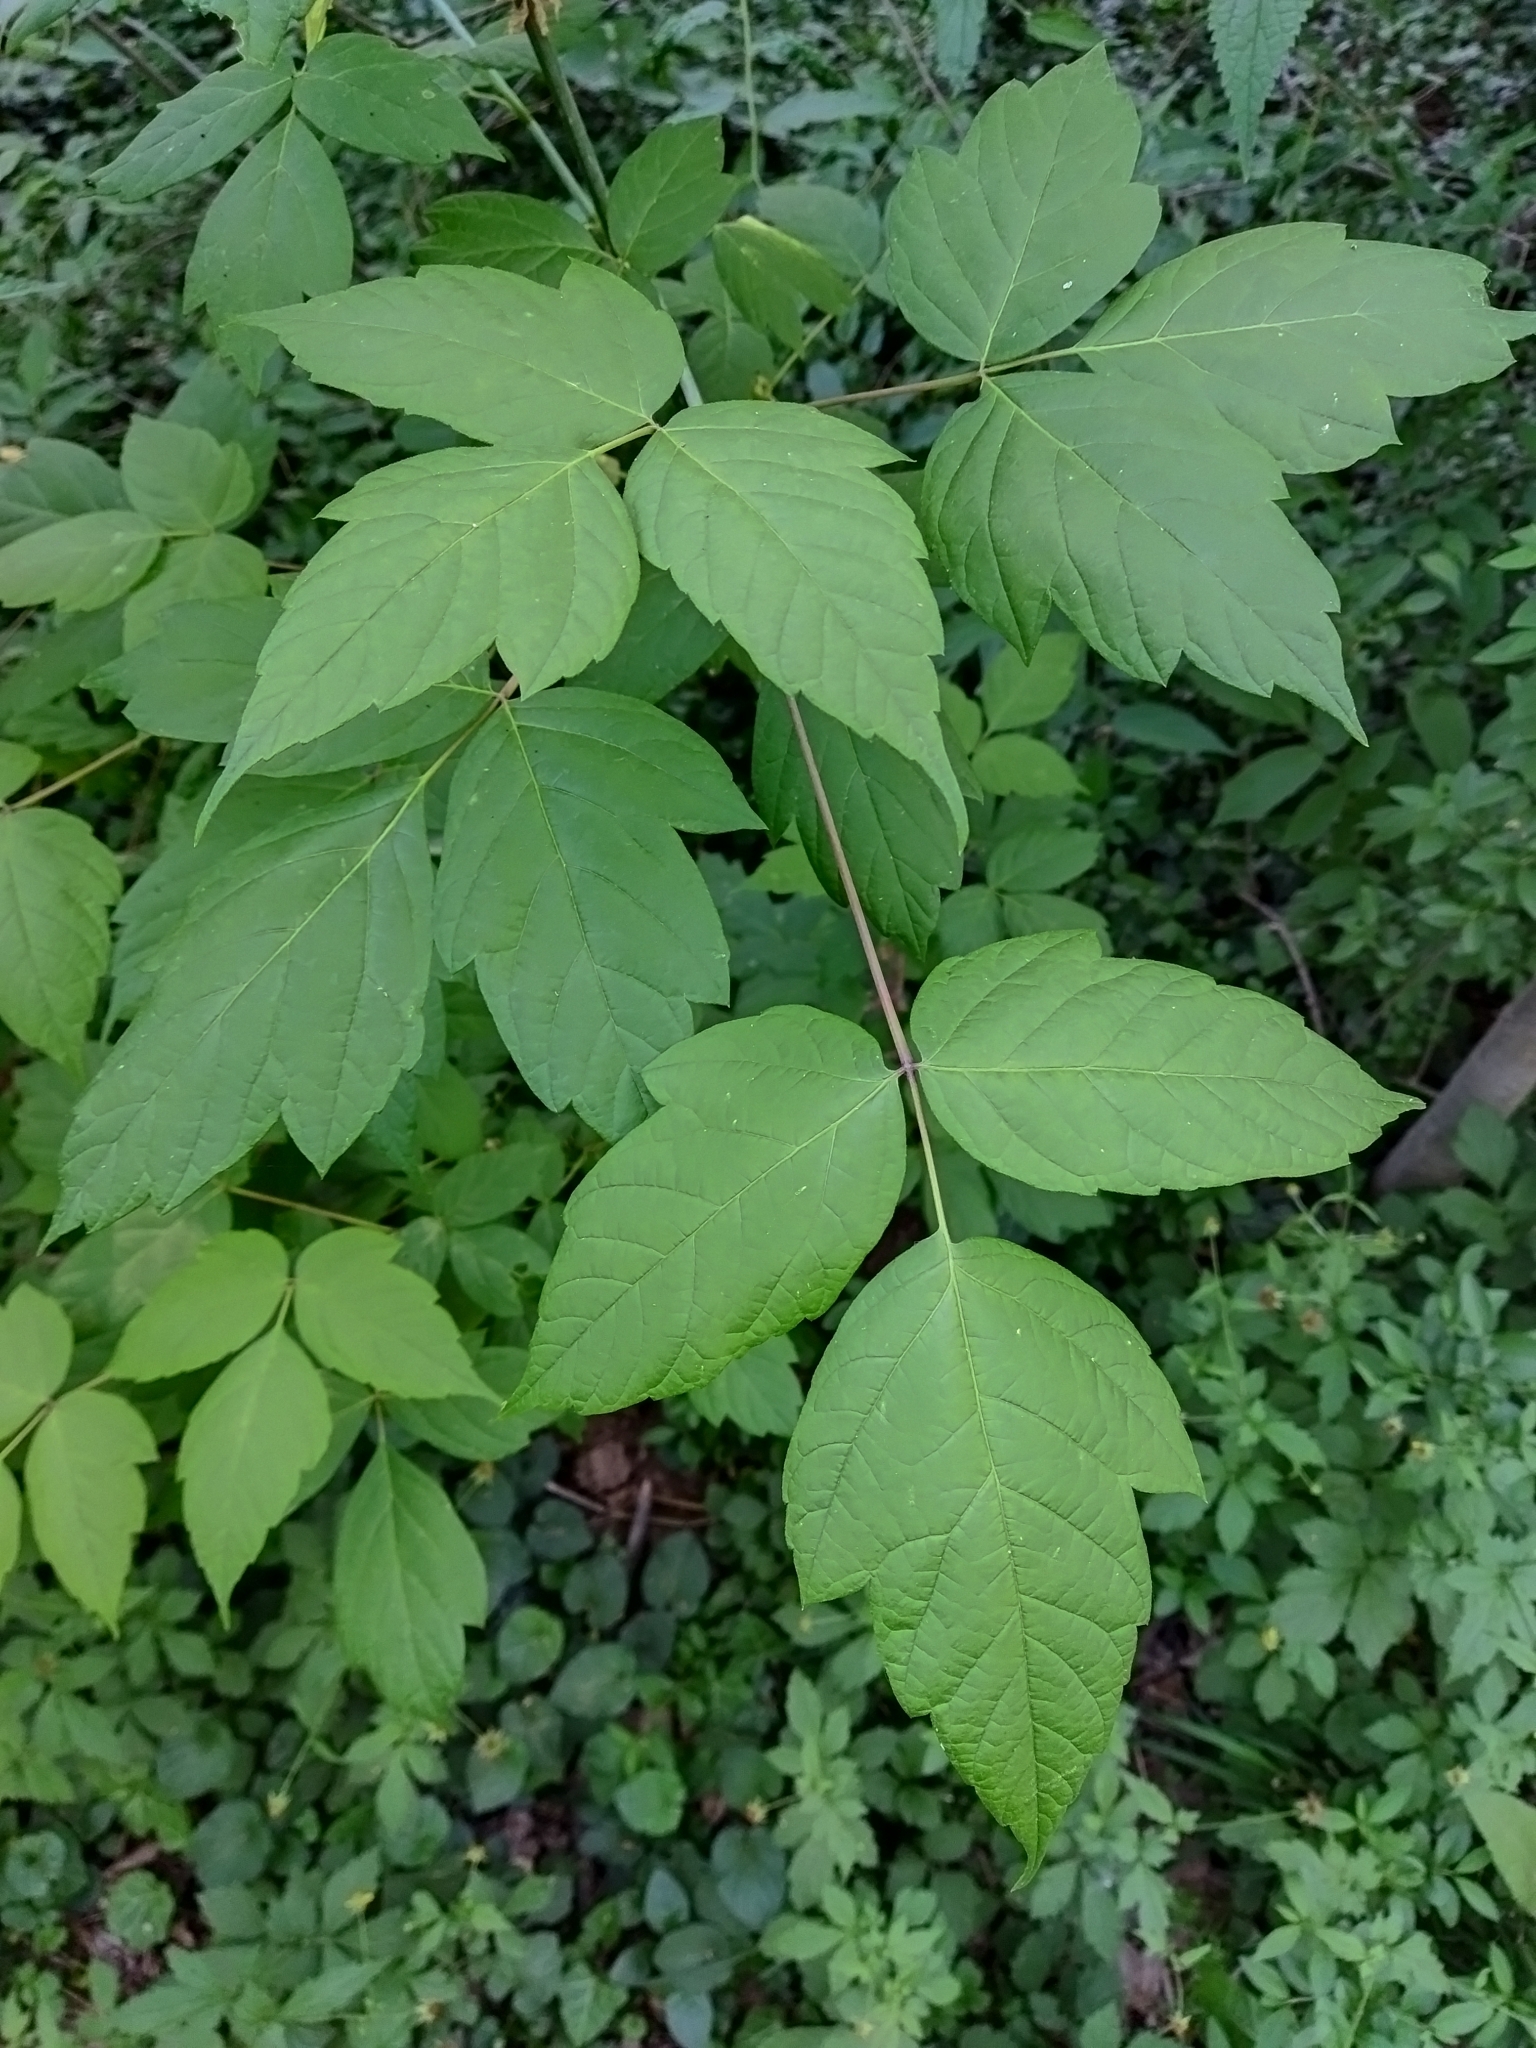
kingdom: Plantae
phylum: Tracheophyta
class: Magnoliopsida
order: Sapindales
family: Sapindaceae
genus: Acer
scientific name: Acer negundo
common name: Ashleaf maple
